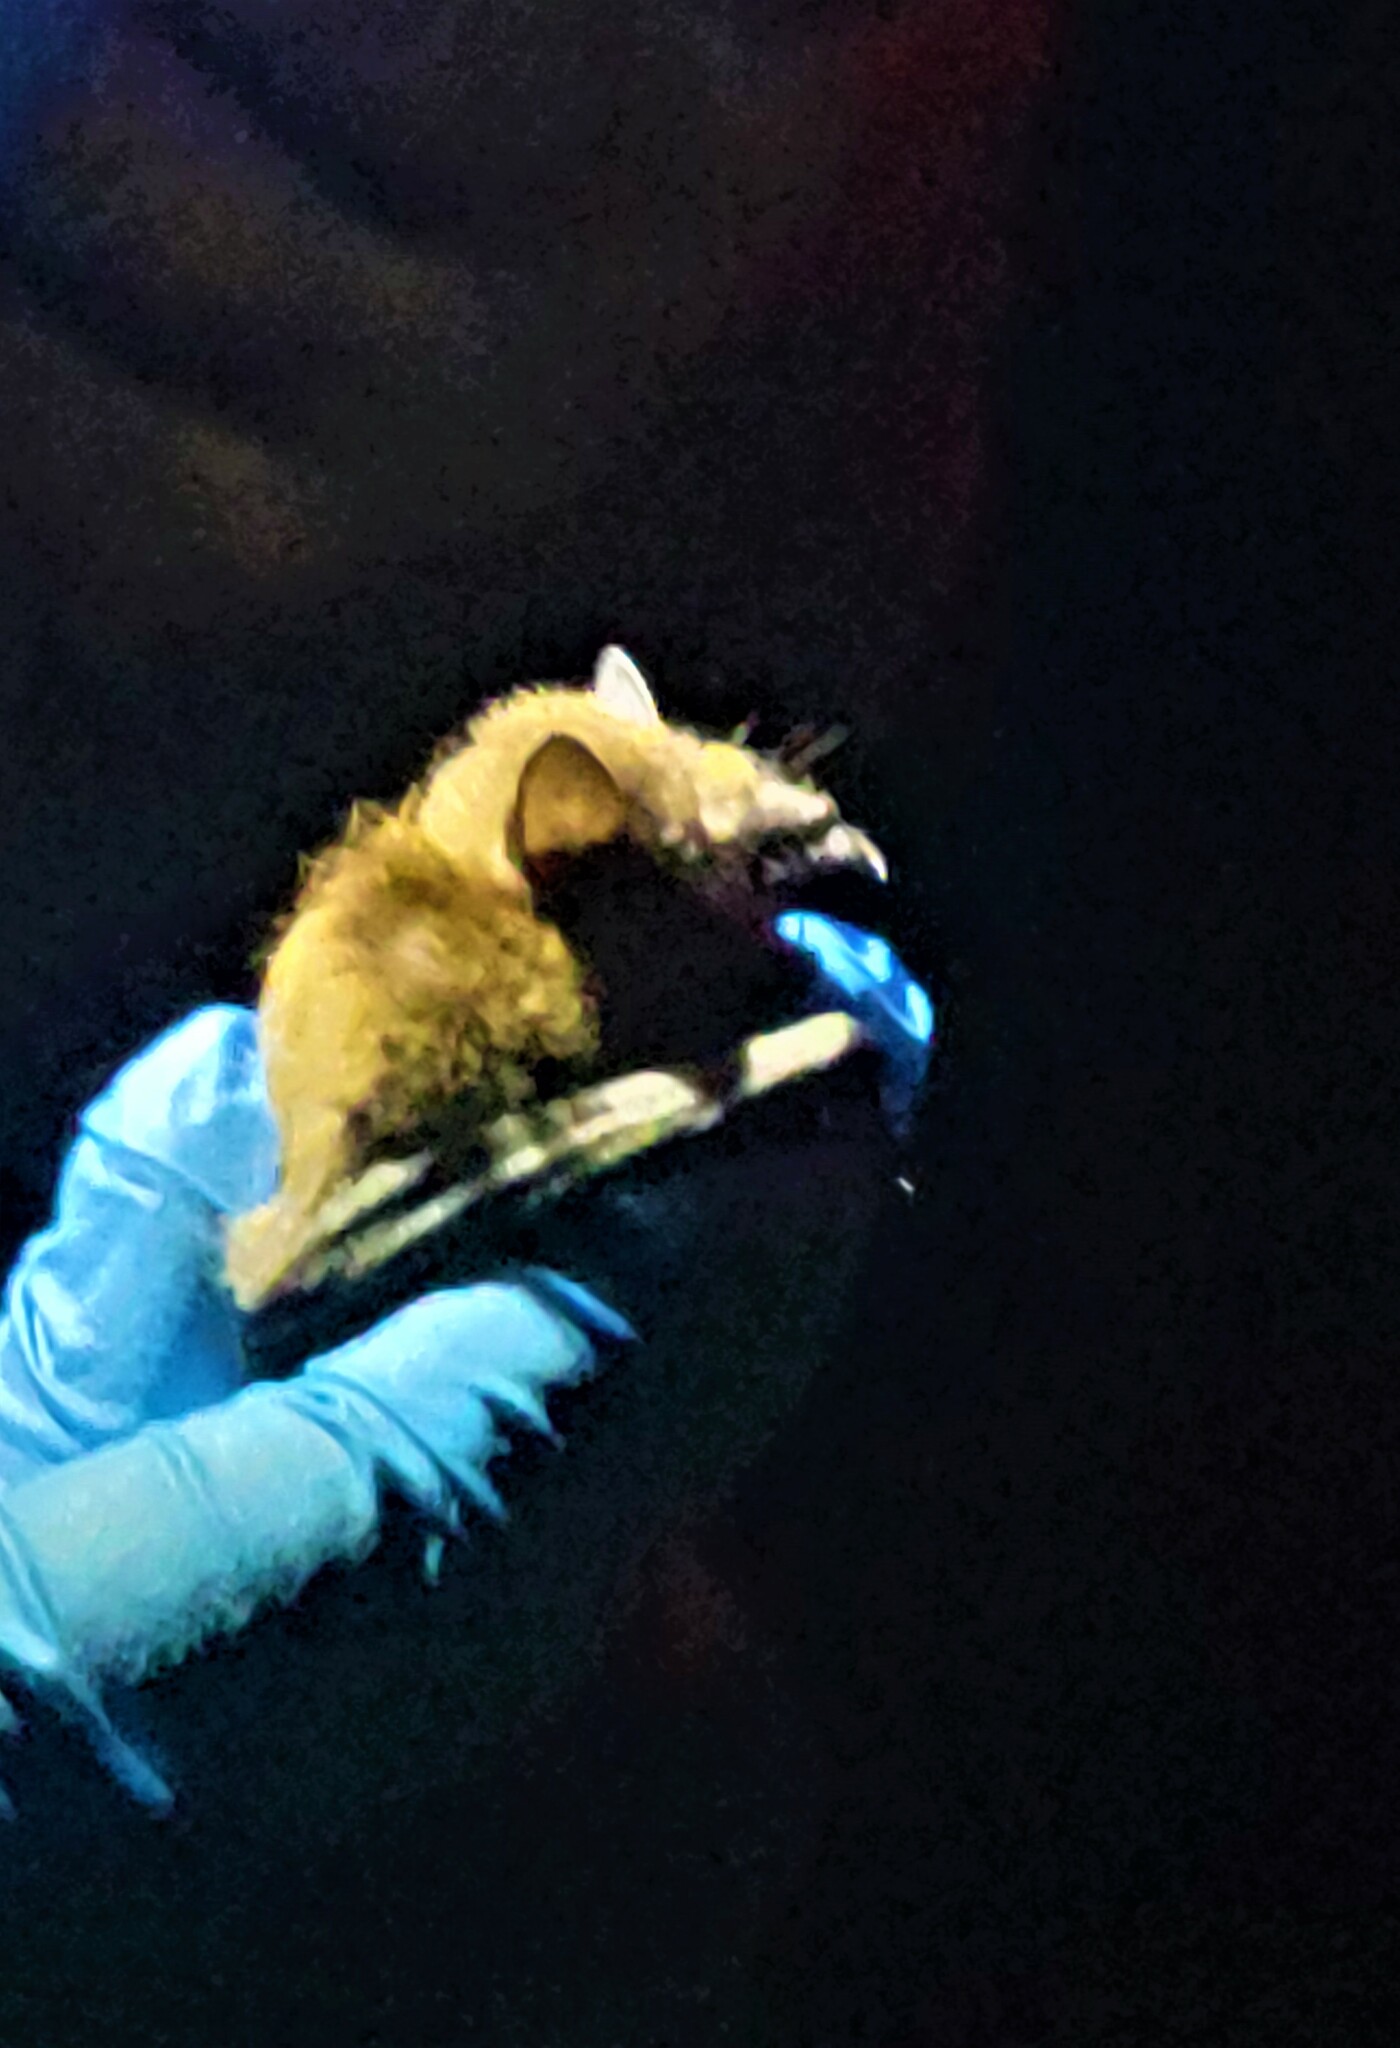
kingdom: Animalia
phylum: Chordata
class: Mammalia
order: Chiroptera
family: Vespertilionidae
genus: Nycticeius
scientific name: Nycticeius humeralis
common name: Evening bat
